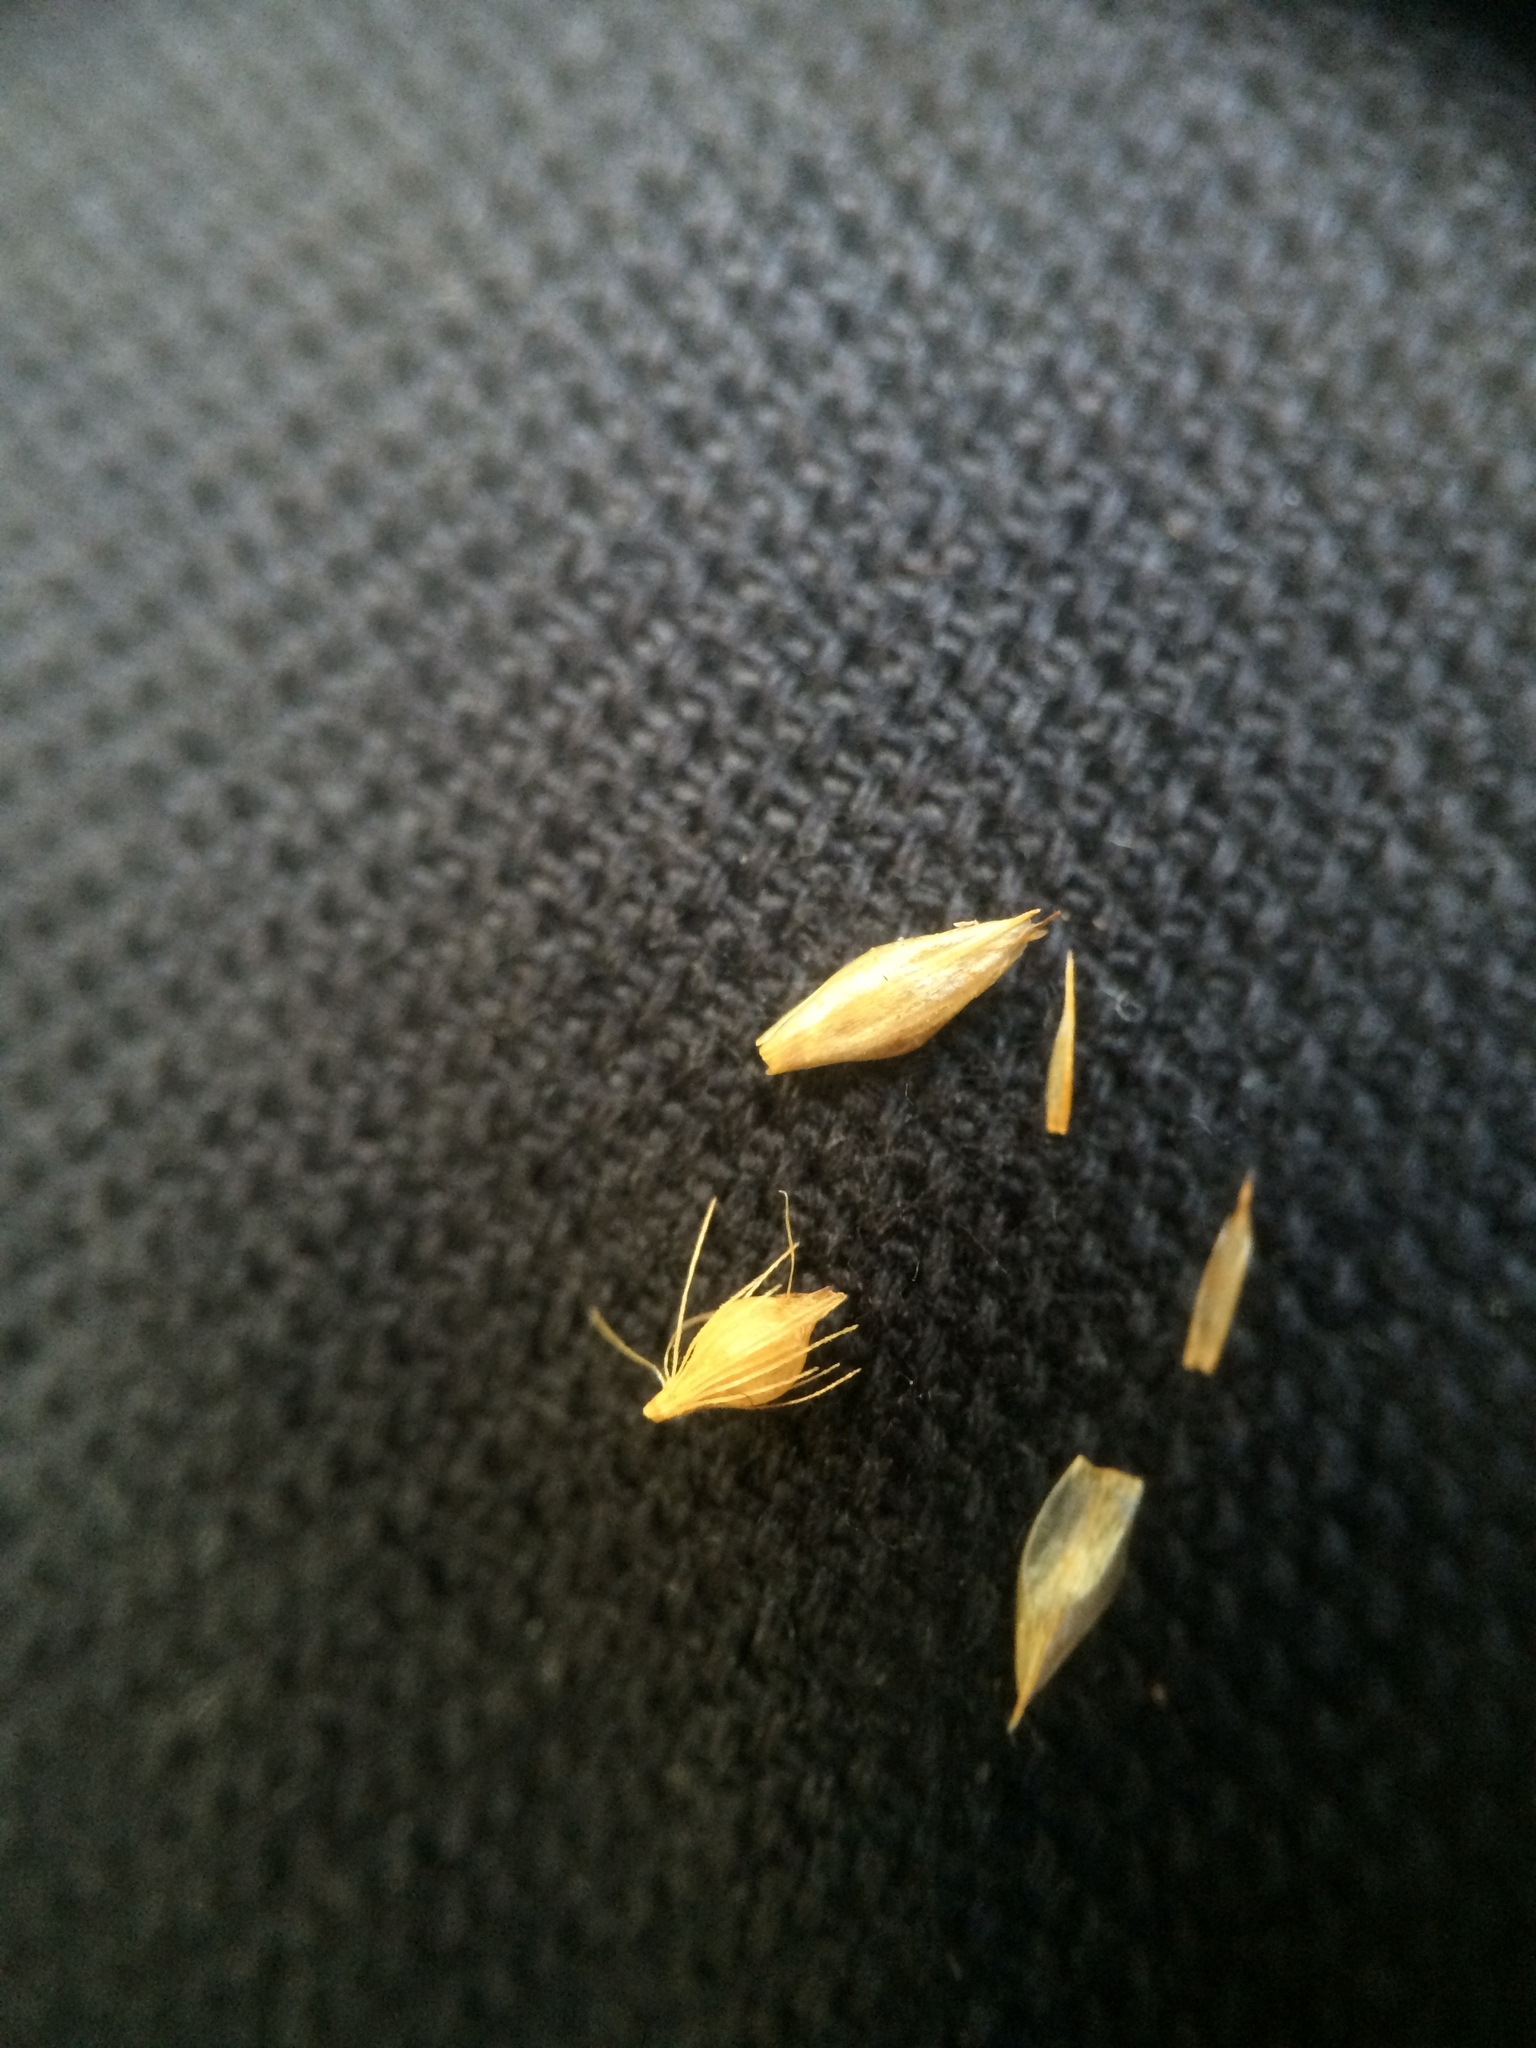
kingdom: Plantae
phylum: Tracheophyta
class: Liliopsida
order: Poales
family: Cyperaceae
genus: Rhynchospora
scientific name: Rhynchospora alba
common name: White beak-sedge
